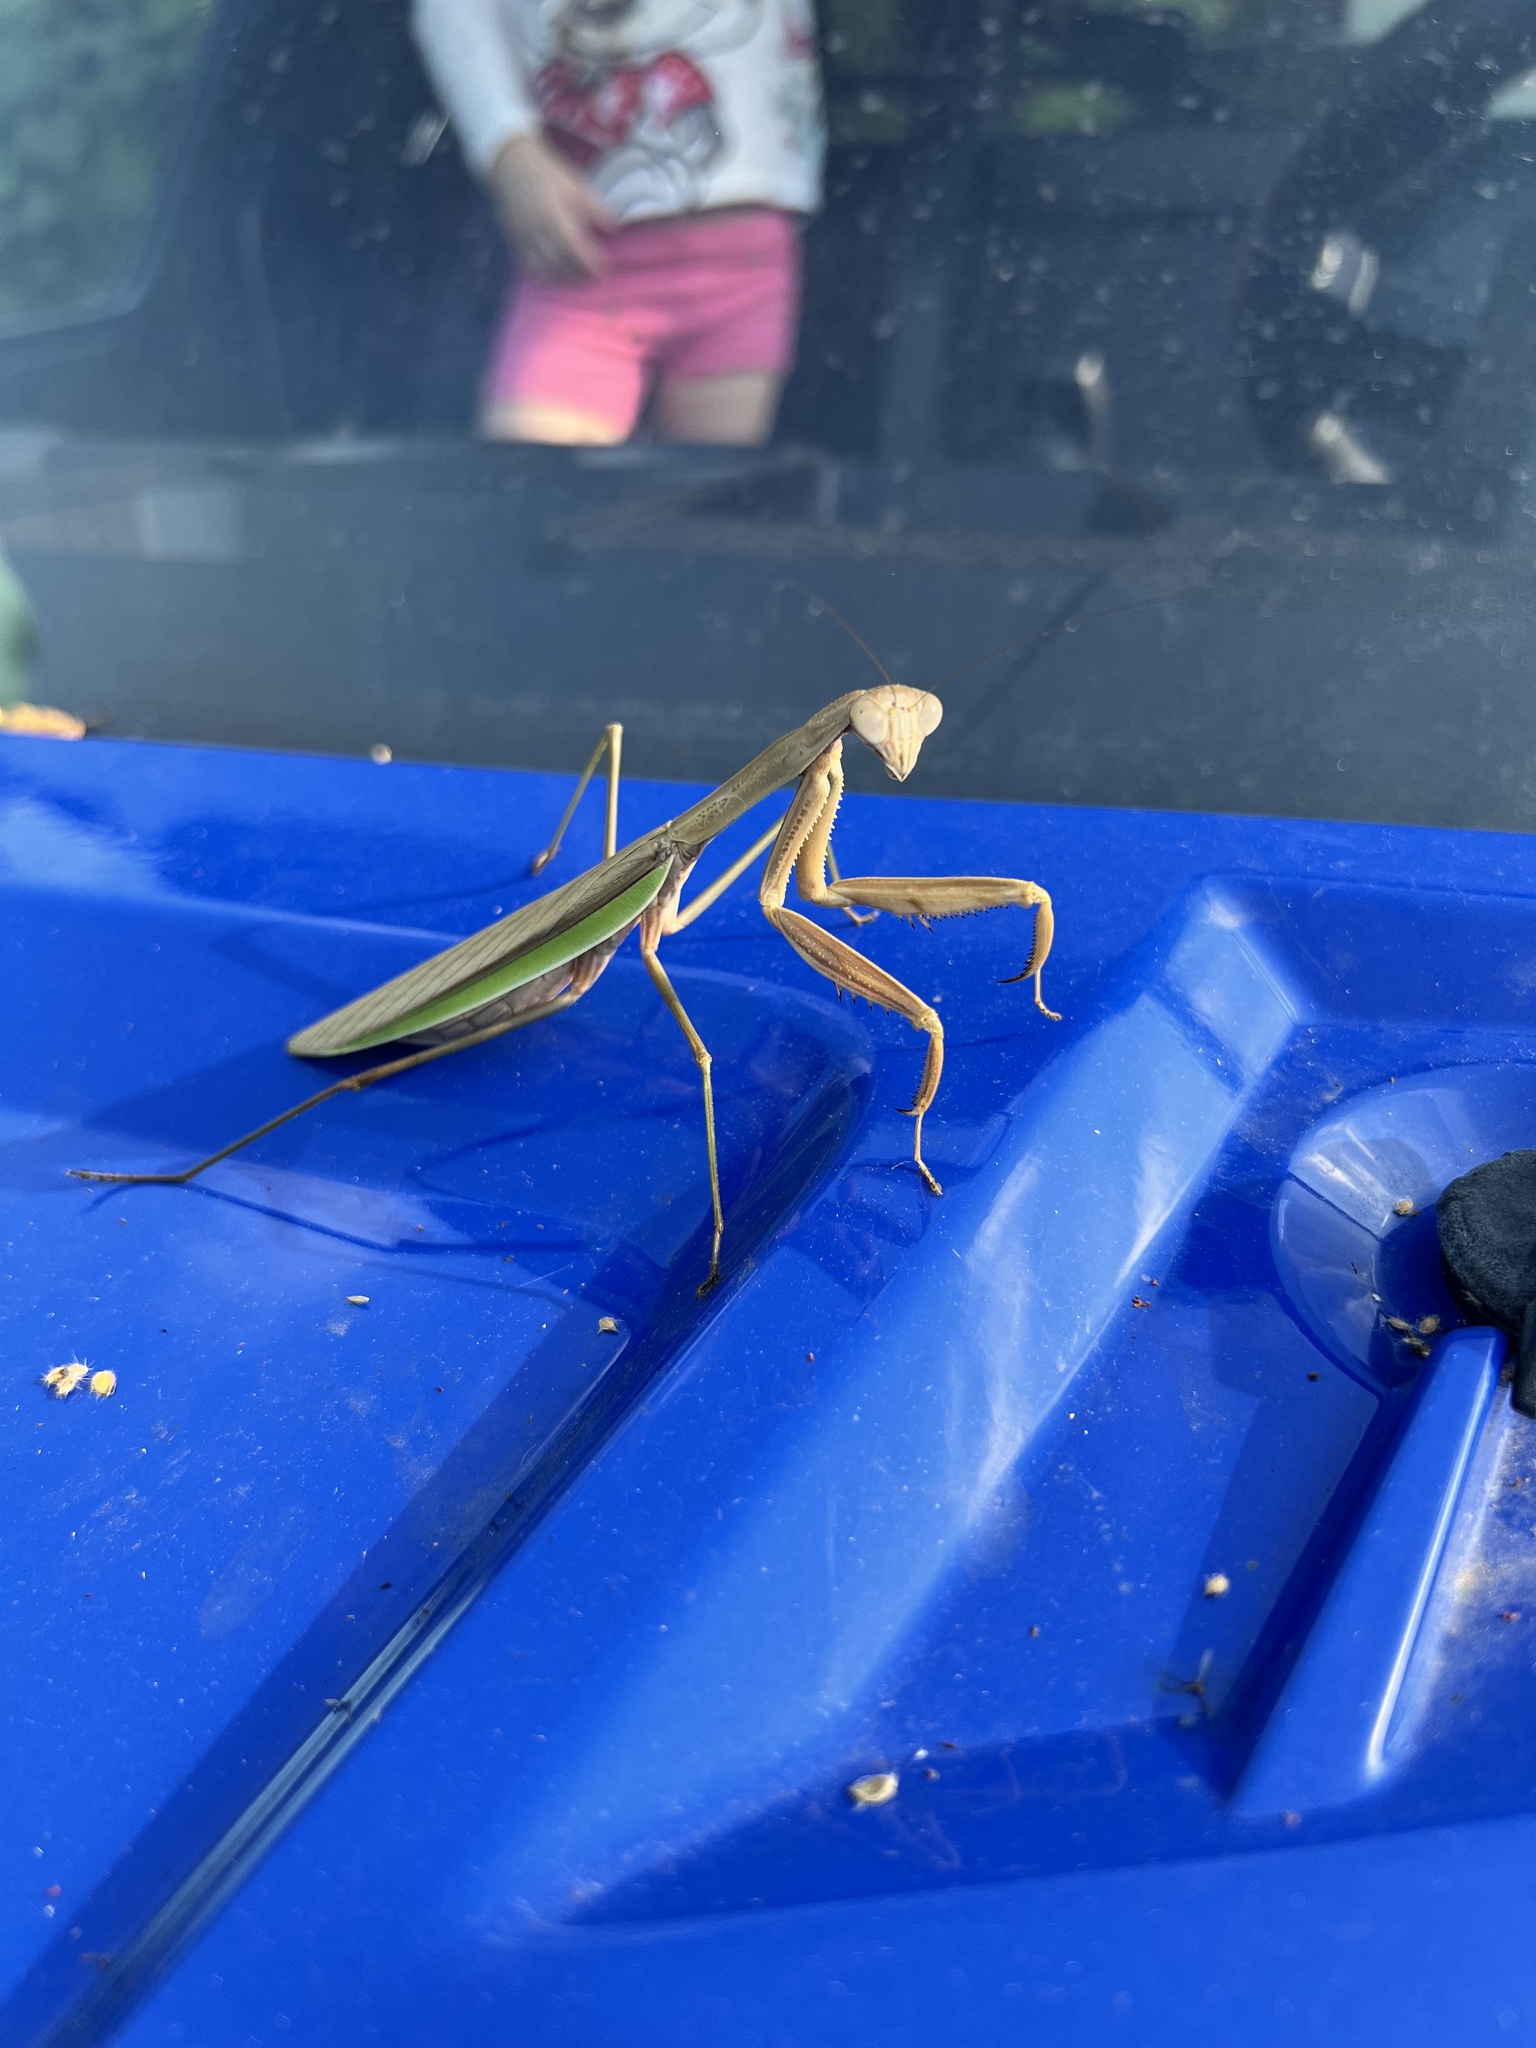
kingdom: Animalia
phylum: Arthropoda
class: Insecta
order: Mantodea
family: Mantidae
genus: Tenodera
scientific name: Tenodera sinensis
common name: Chinese mantis
